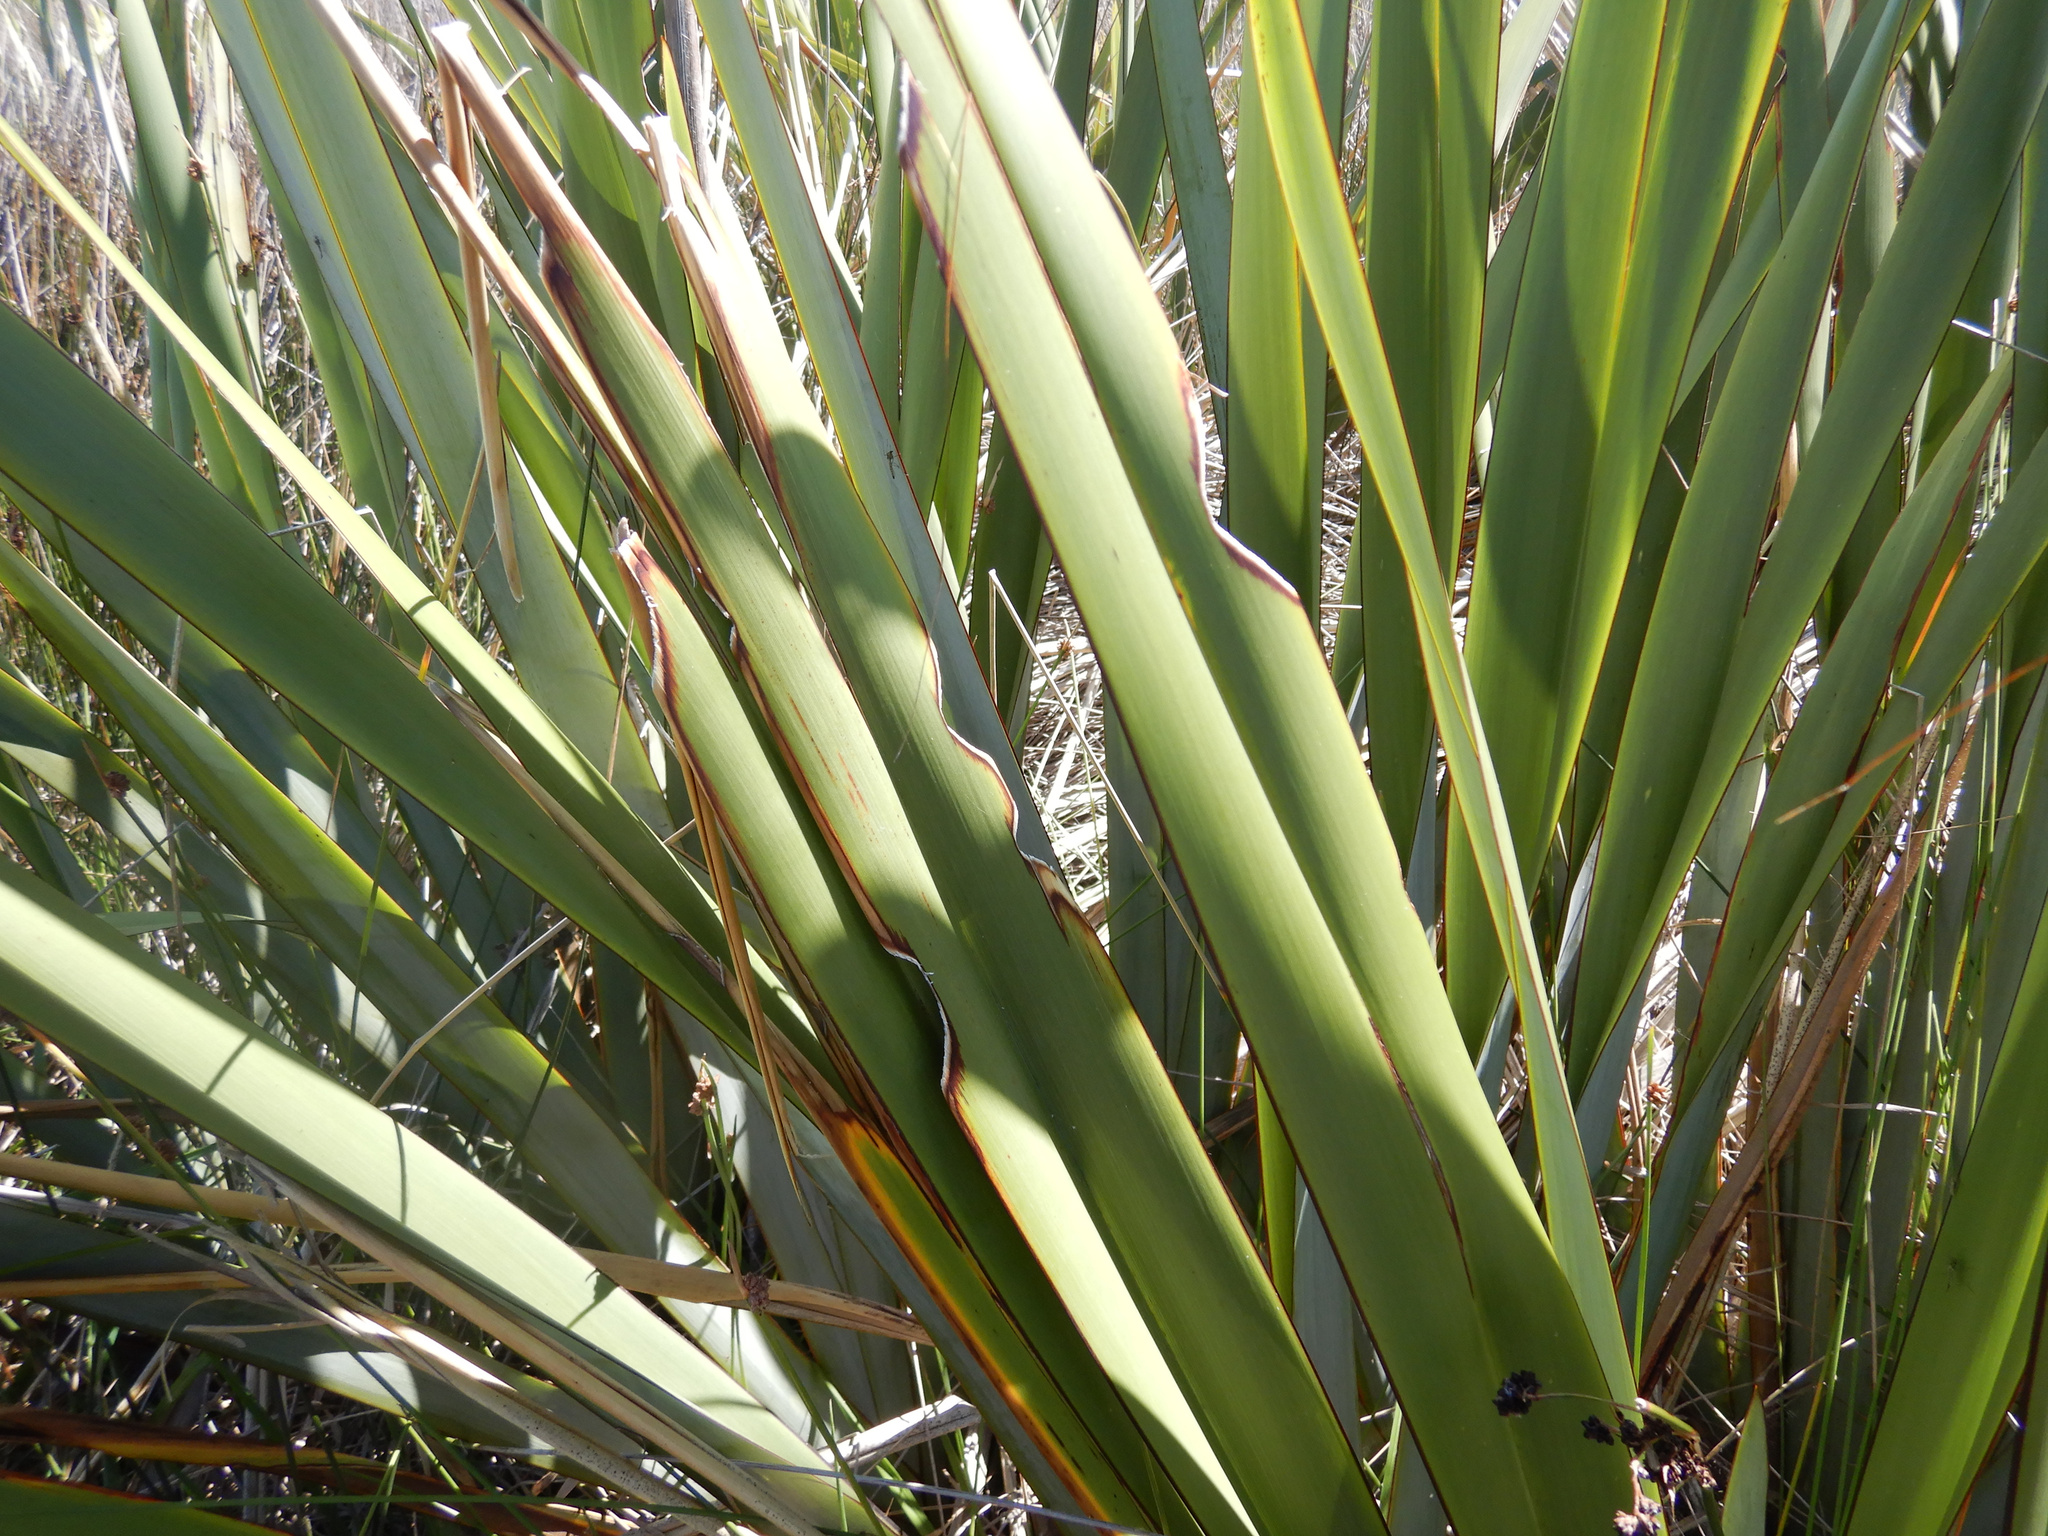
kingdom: Animalia
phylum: Arthropoda
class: Insecta
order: Lepidoptera
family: Noctuidae
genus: Ichneutica
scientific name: Ichneutica
